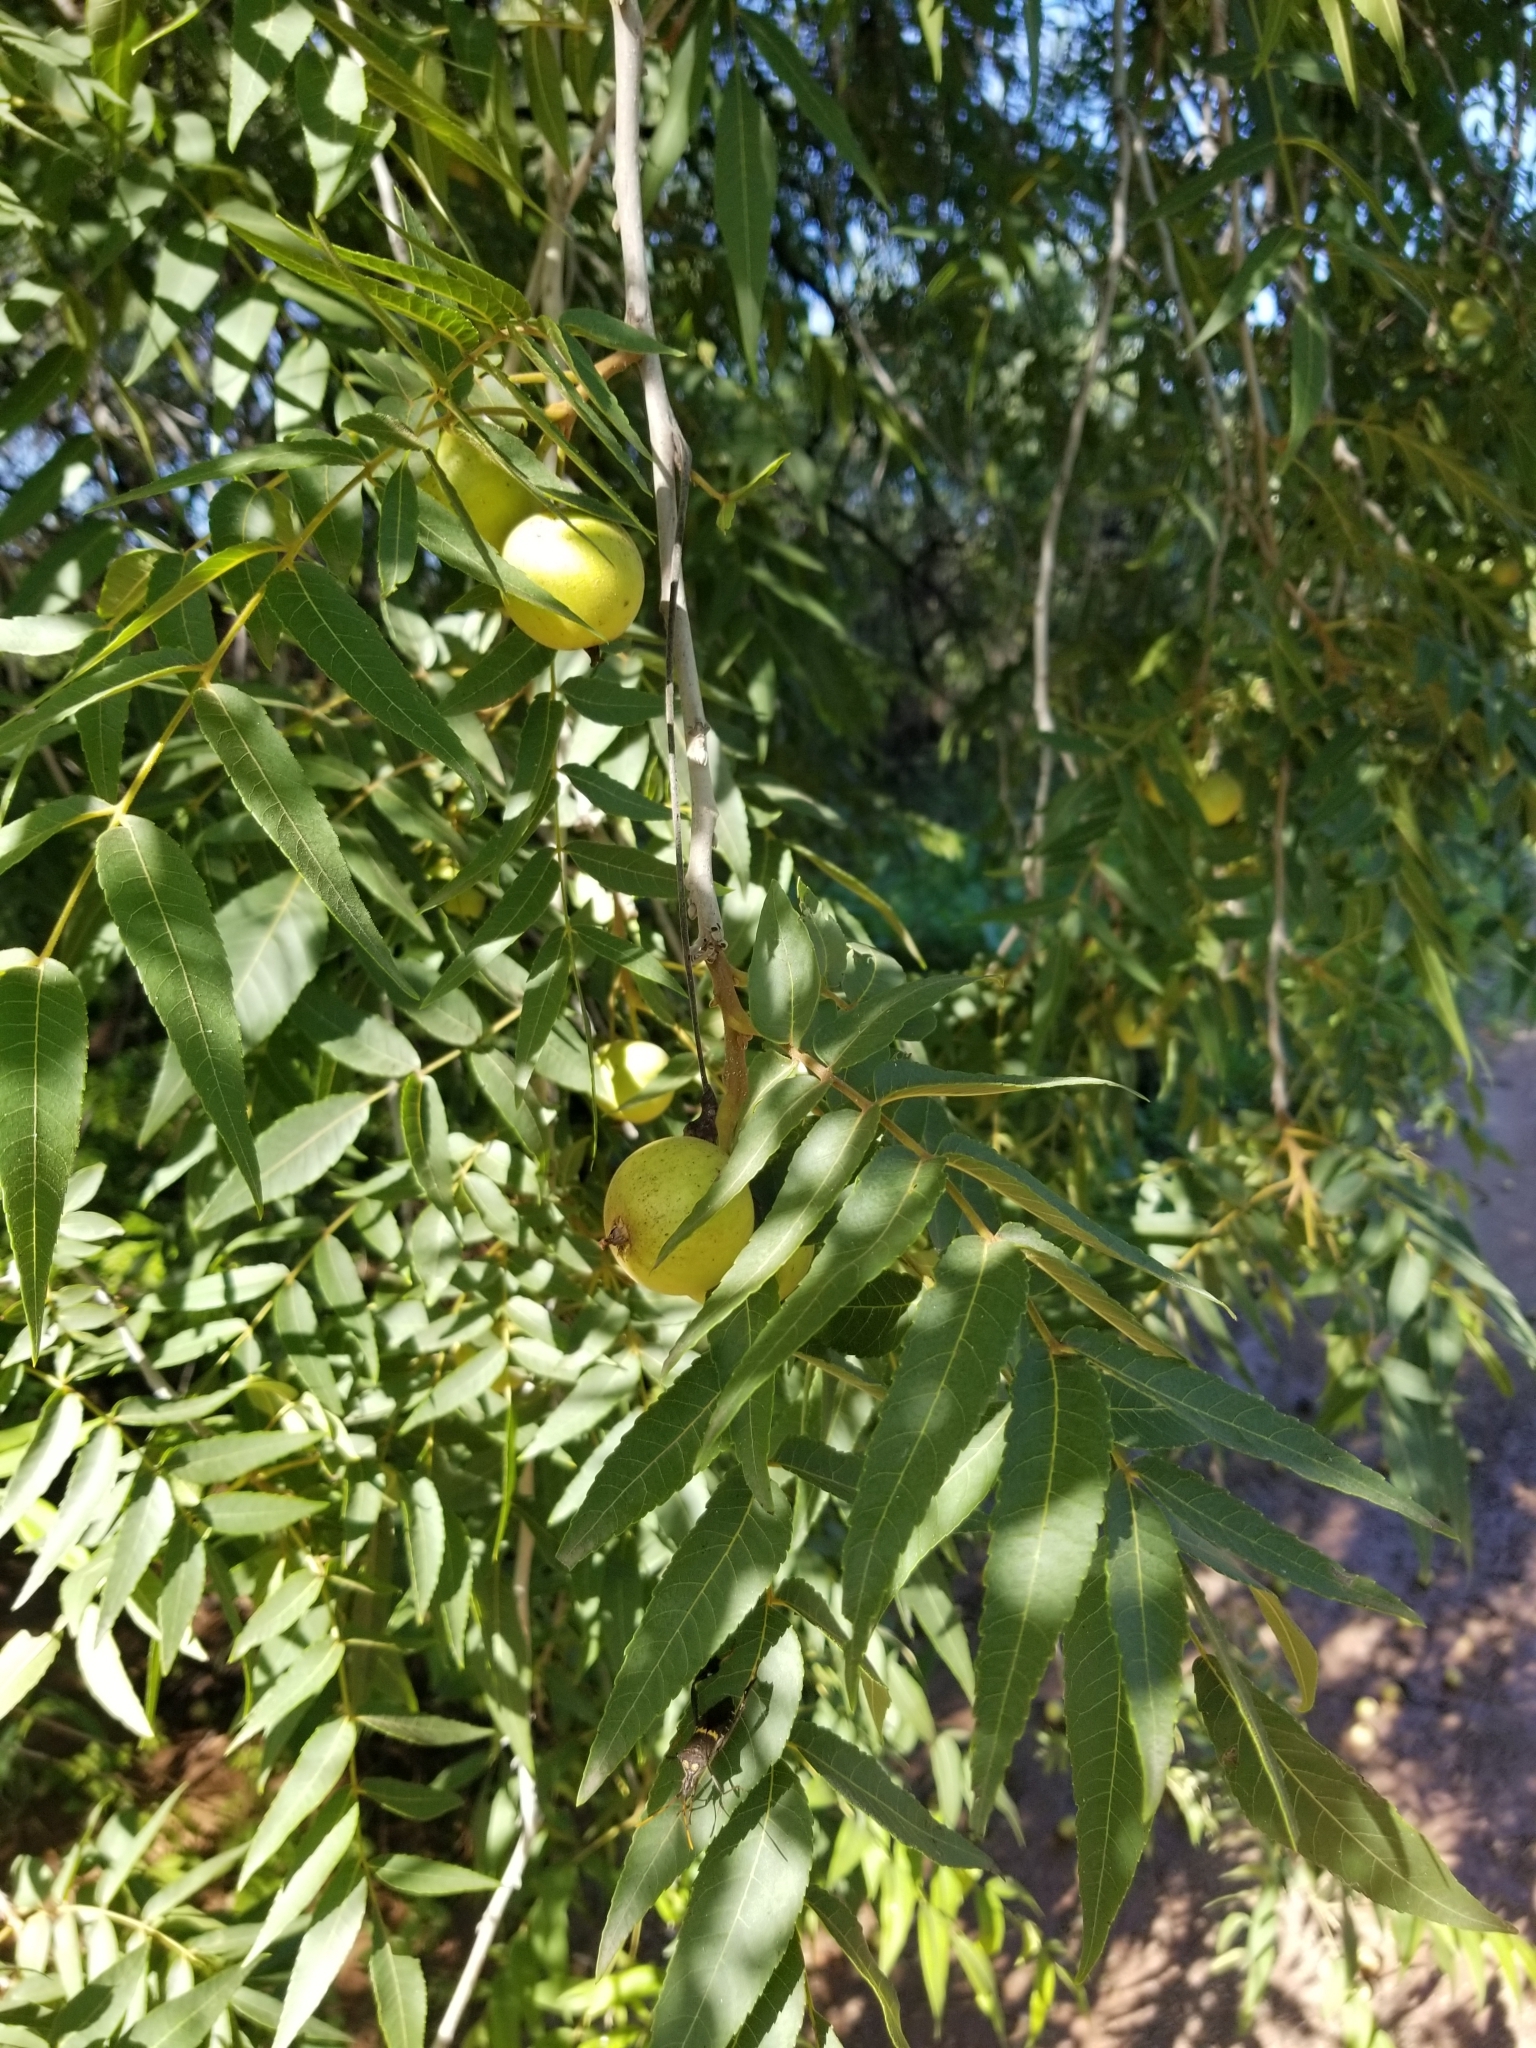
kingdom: Plantae
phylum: Tracheophyta
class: Magnoliopsida
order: Fagales
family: Juglandaceae
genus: Juglans
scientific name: Juglans major
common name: Arizona walnut
